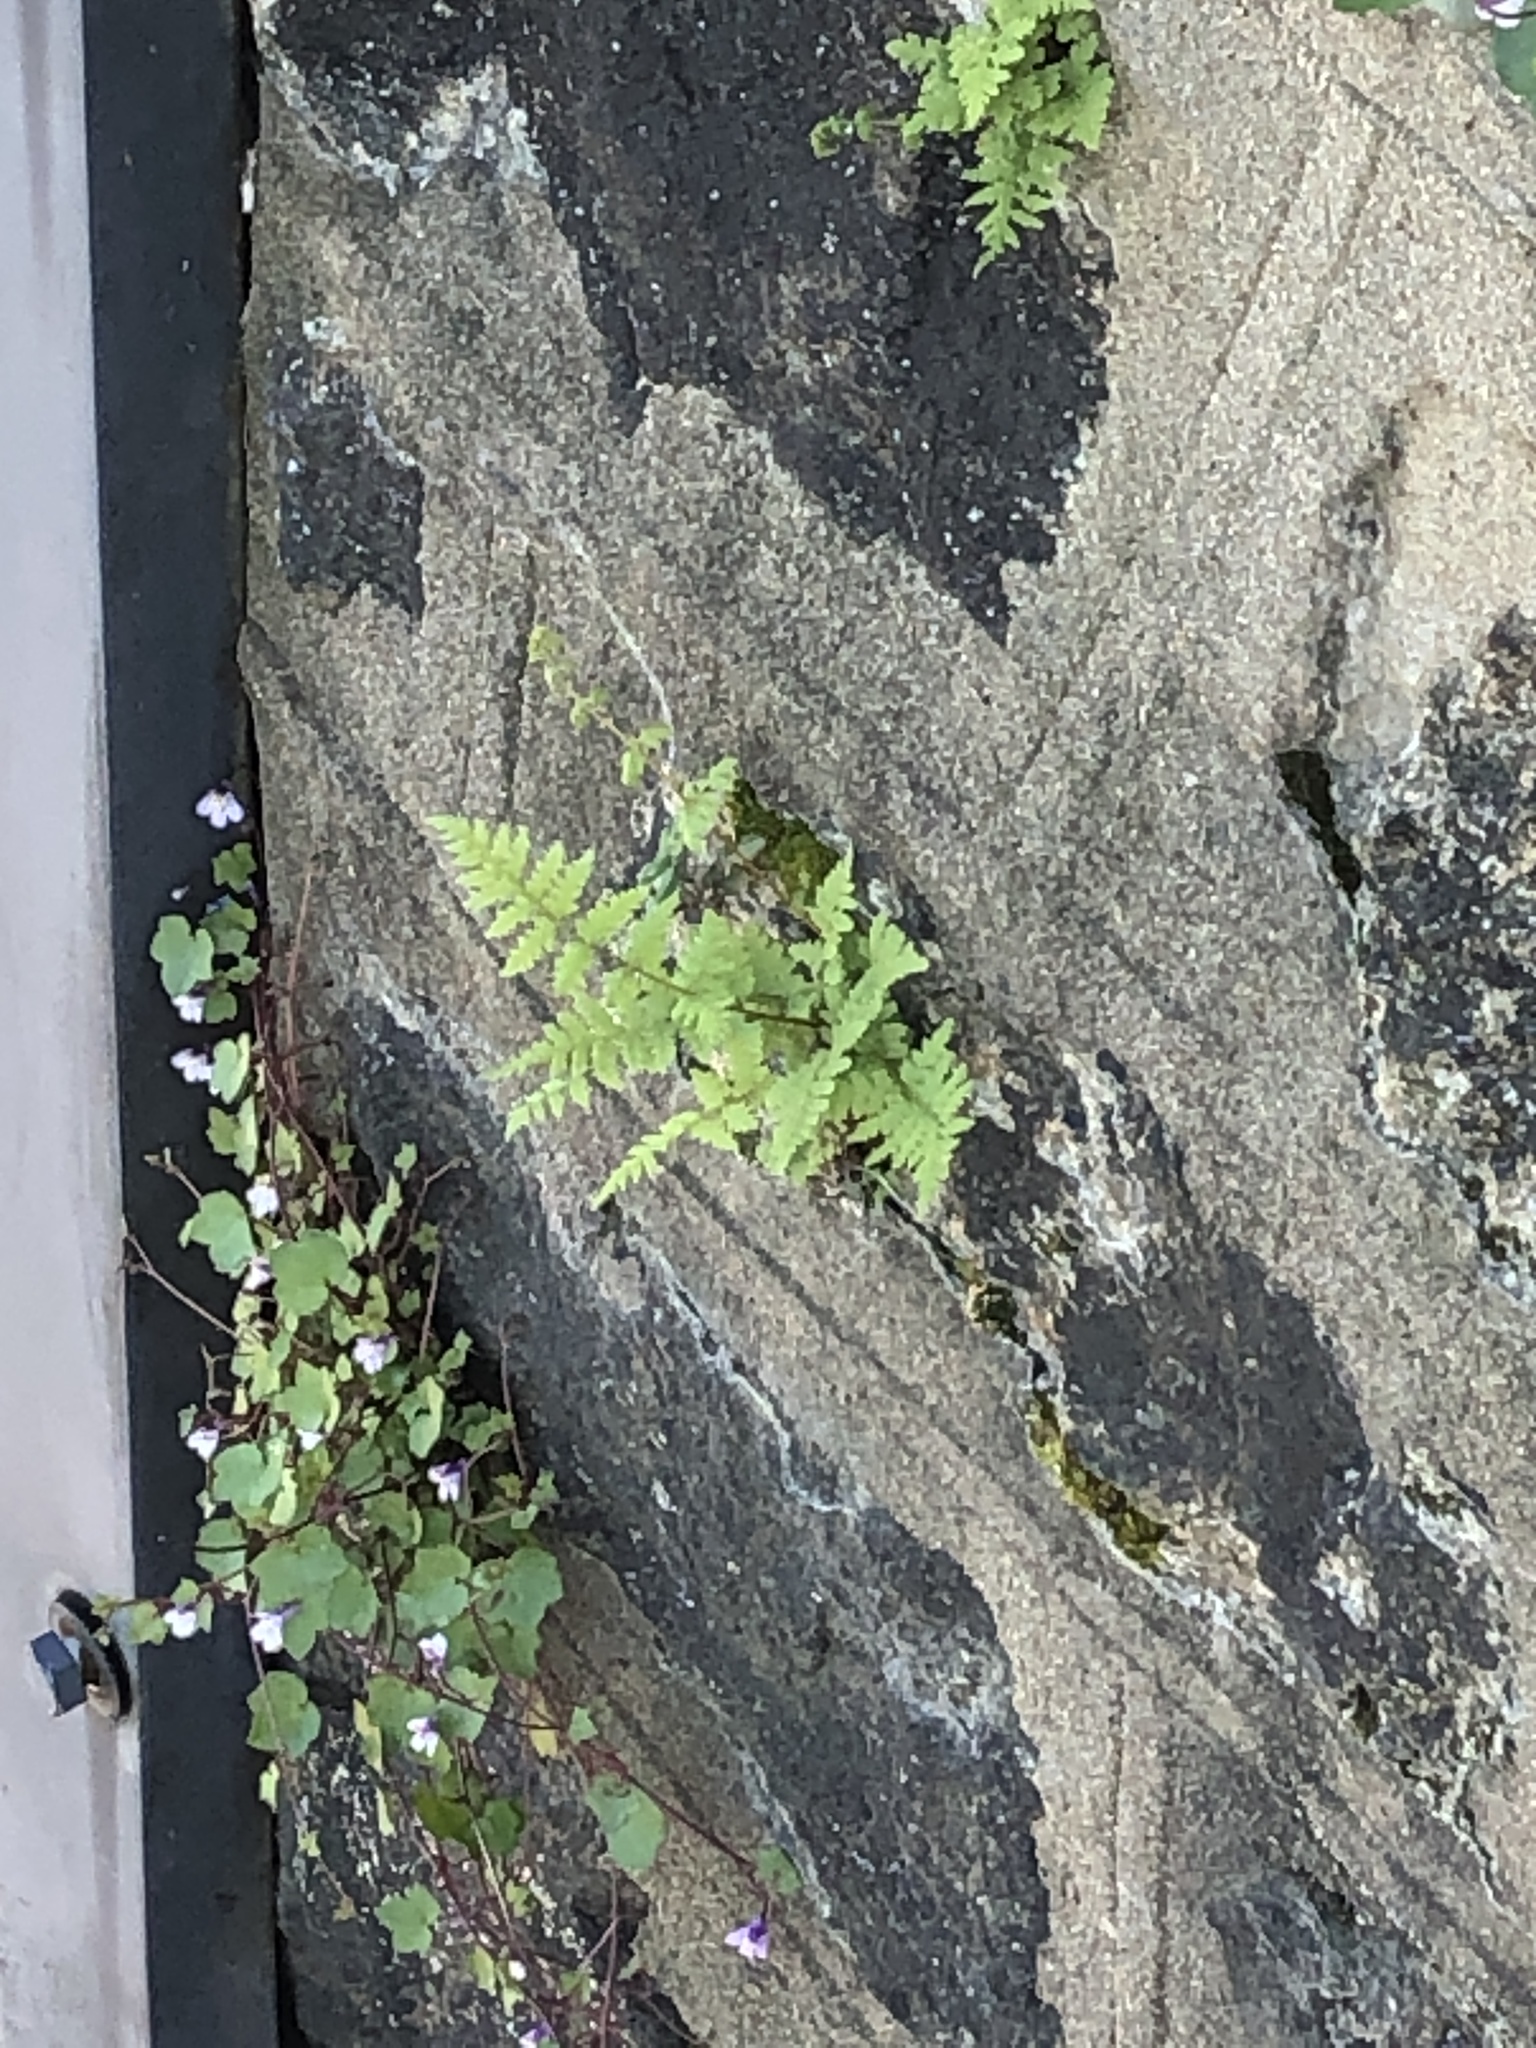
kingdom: Plantae
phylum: Tracheophyta
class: Polypodiopsida
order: Polypodiales
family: Woodsiaceae
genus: Physematium
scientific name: Physematium obtusum
